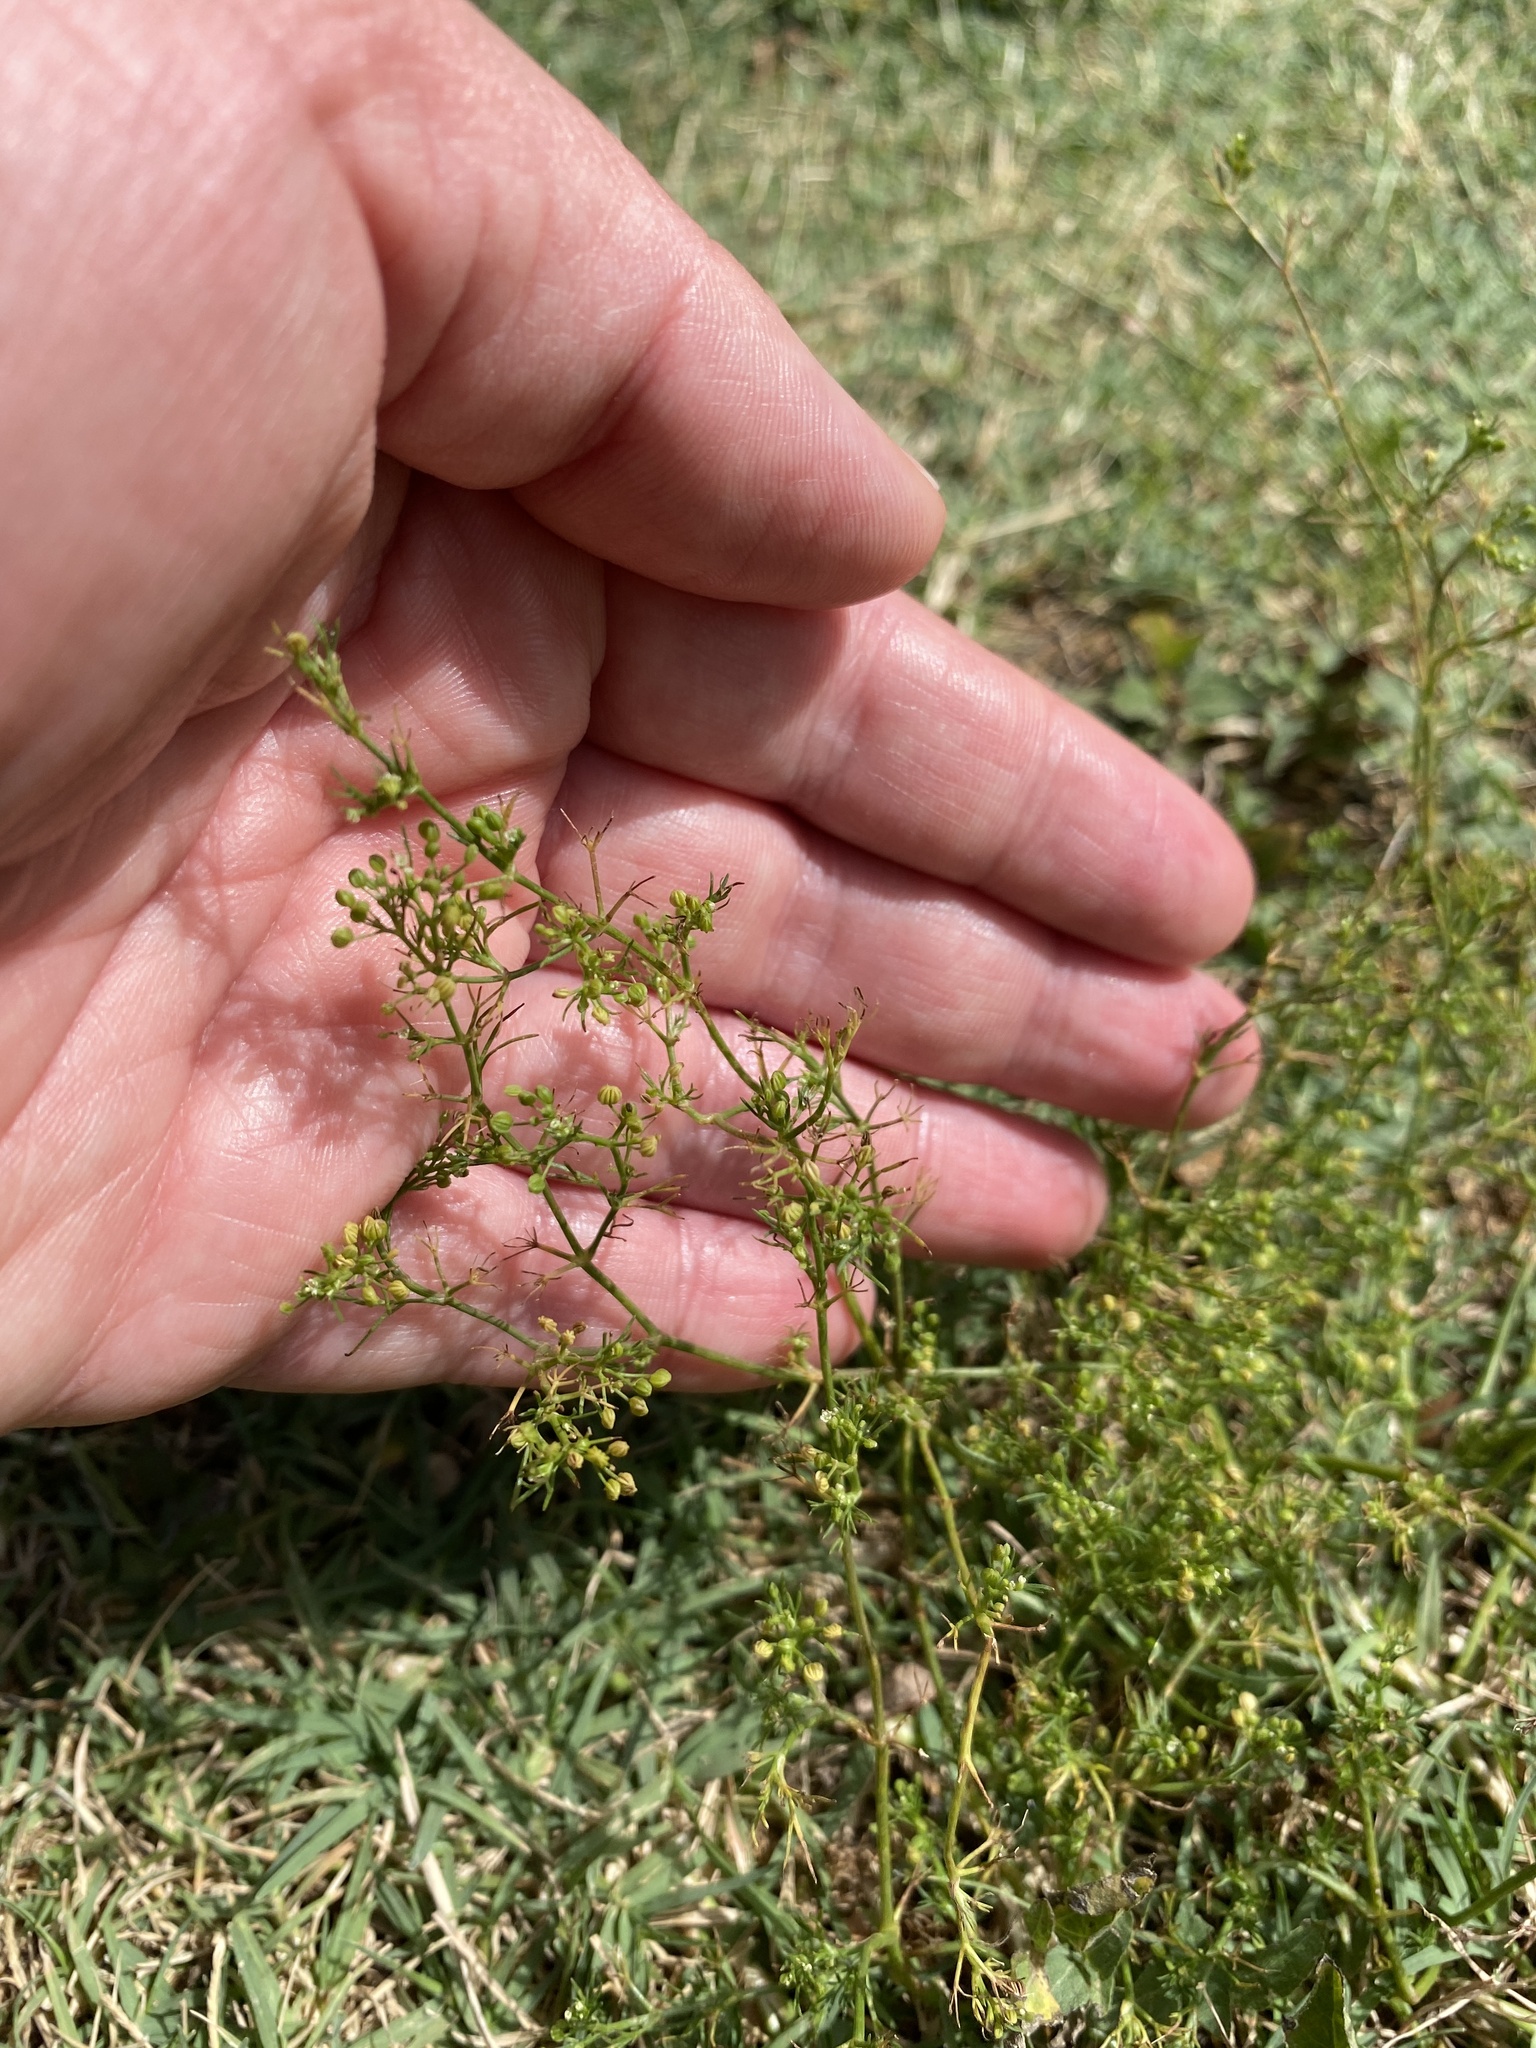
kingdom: Plantae
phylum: Tracheophyta
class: Magnoliopsida
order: Apiales
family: Apiaceae
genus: Cyclospermum
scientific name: Cyclospermum leptophyllum
